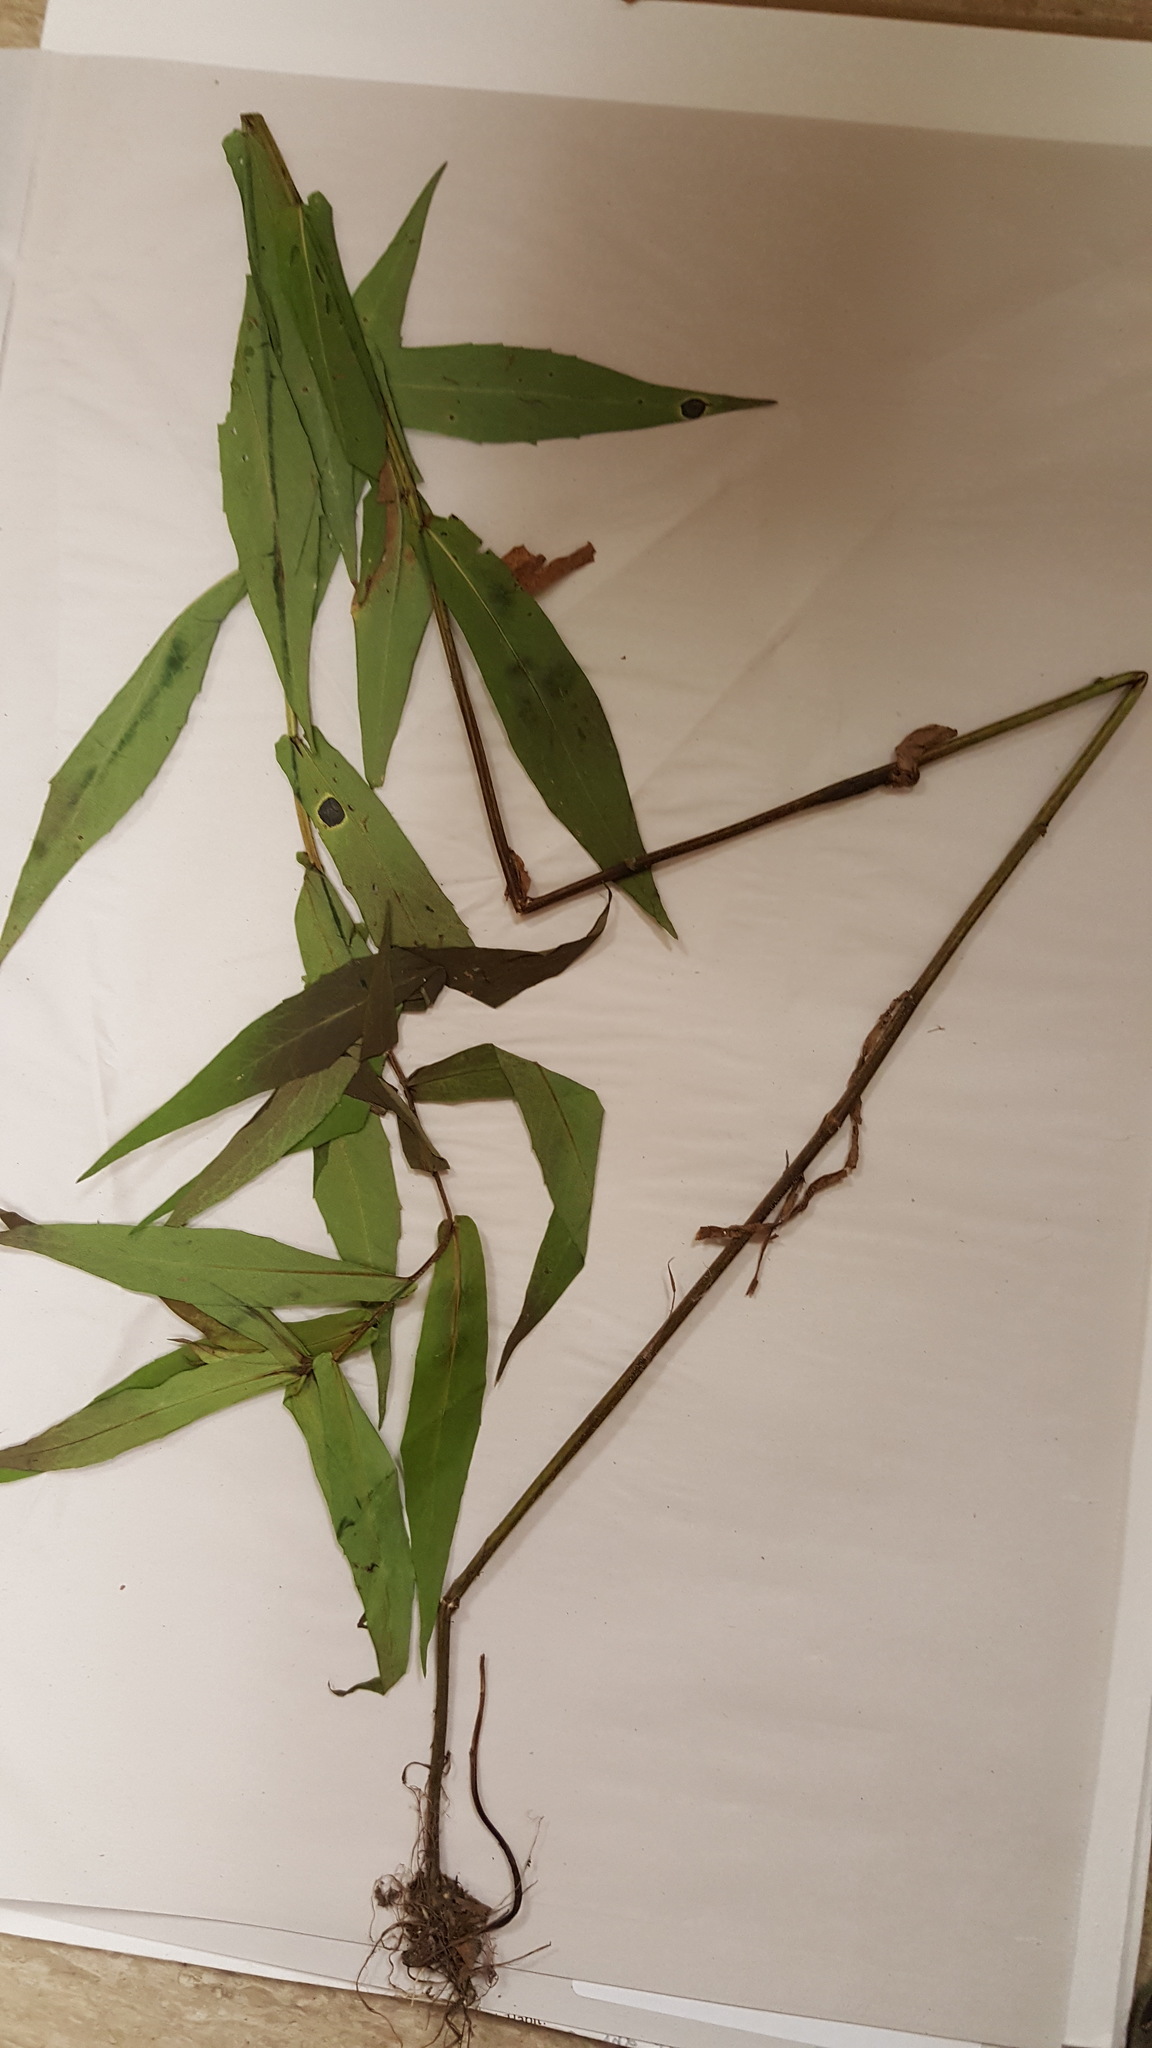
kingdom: Plantae
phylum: Tracheophyta
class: Magnoliopsida
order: Asterales
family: Asteraceae
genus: Symphyotrichum
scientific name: Symphyotrichum puniceum
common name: Bog aster
